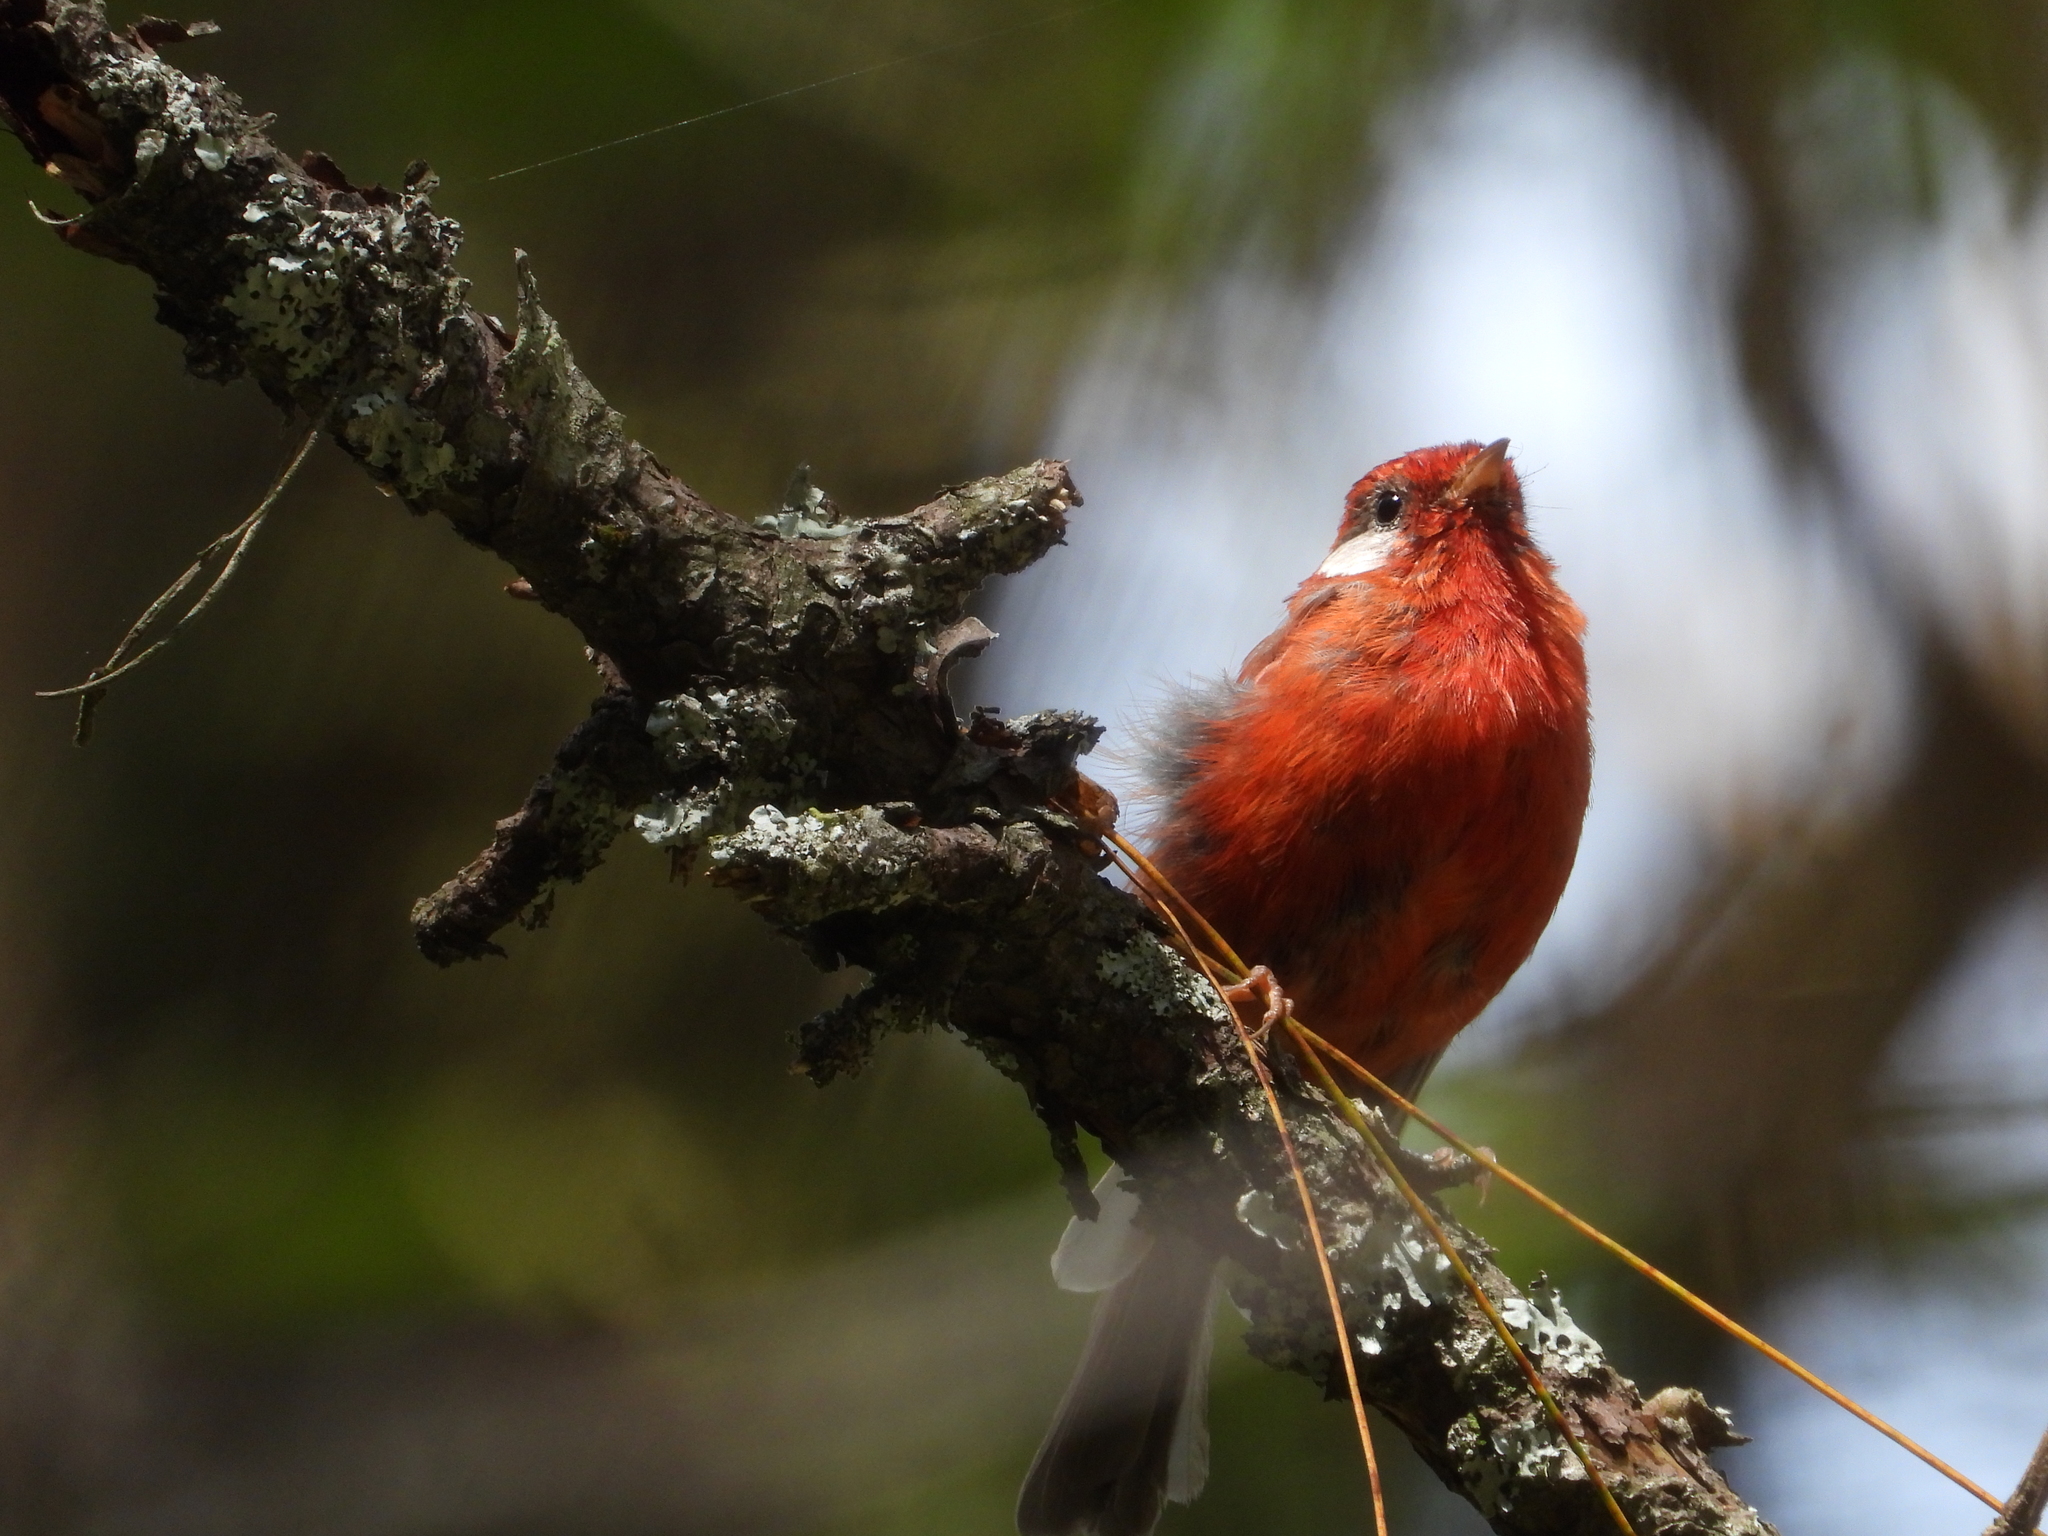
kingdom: Animalia
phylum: Chordata
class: Aves
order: Passeriformes
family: Parulidae
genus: Cardellina
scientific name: Cardellina rubra
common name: Red warbler
